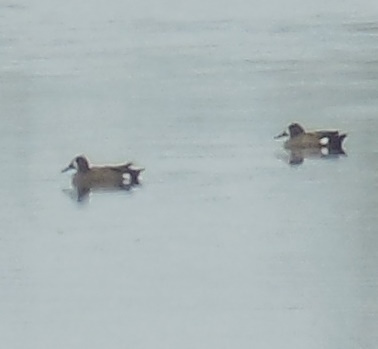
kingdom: Animalia
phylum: Chordata
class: Aves
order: Anseriformes
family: Anatidae
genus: Spatula
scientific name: Spatula discors
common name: Blue-winged teal
